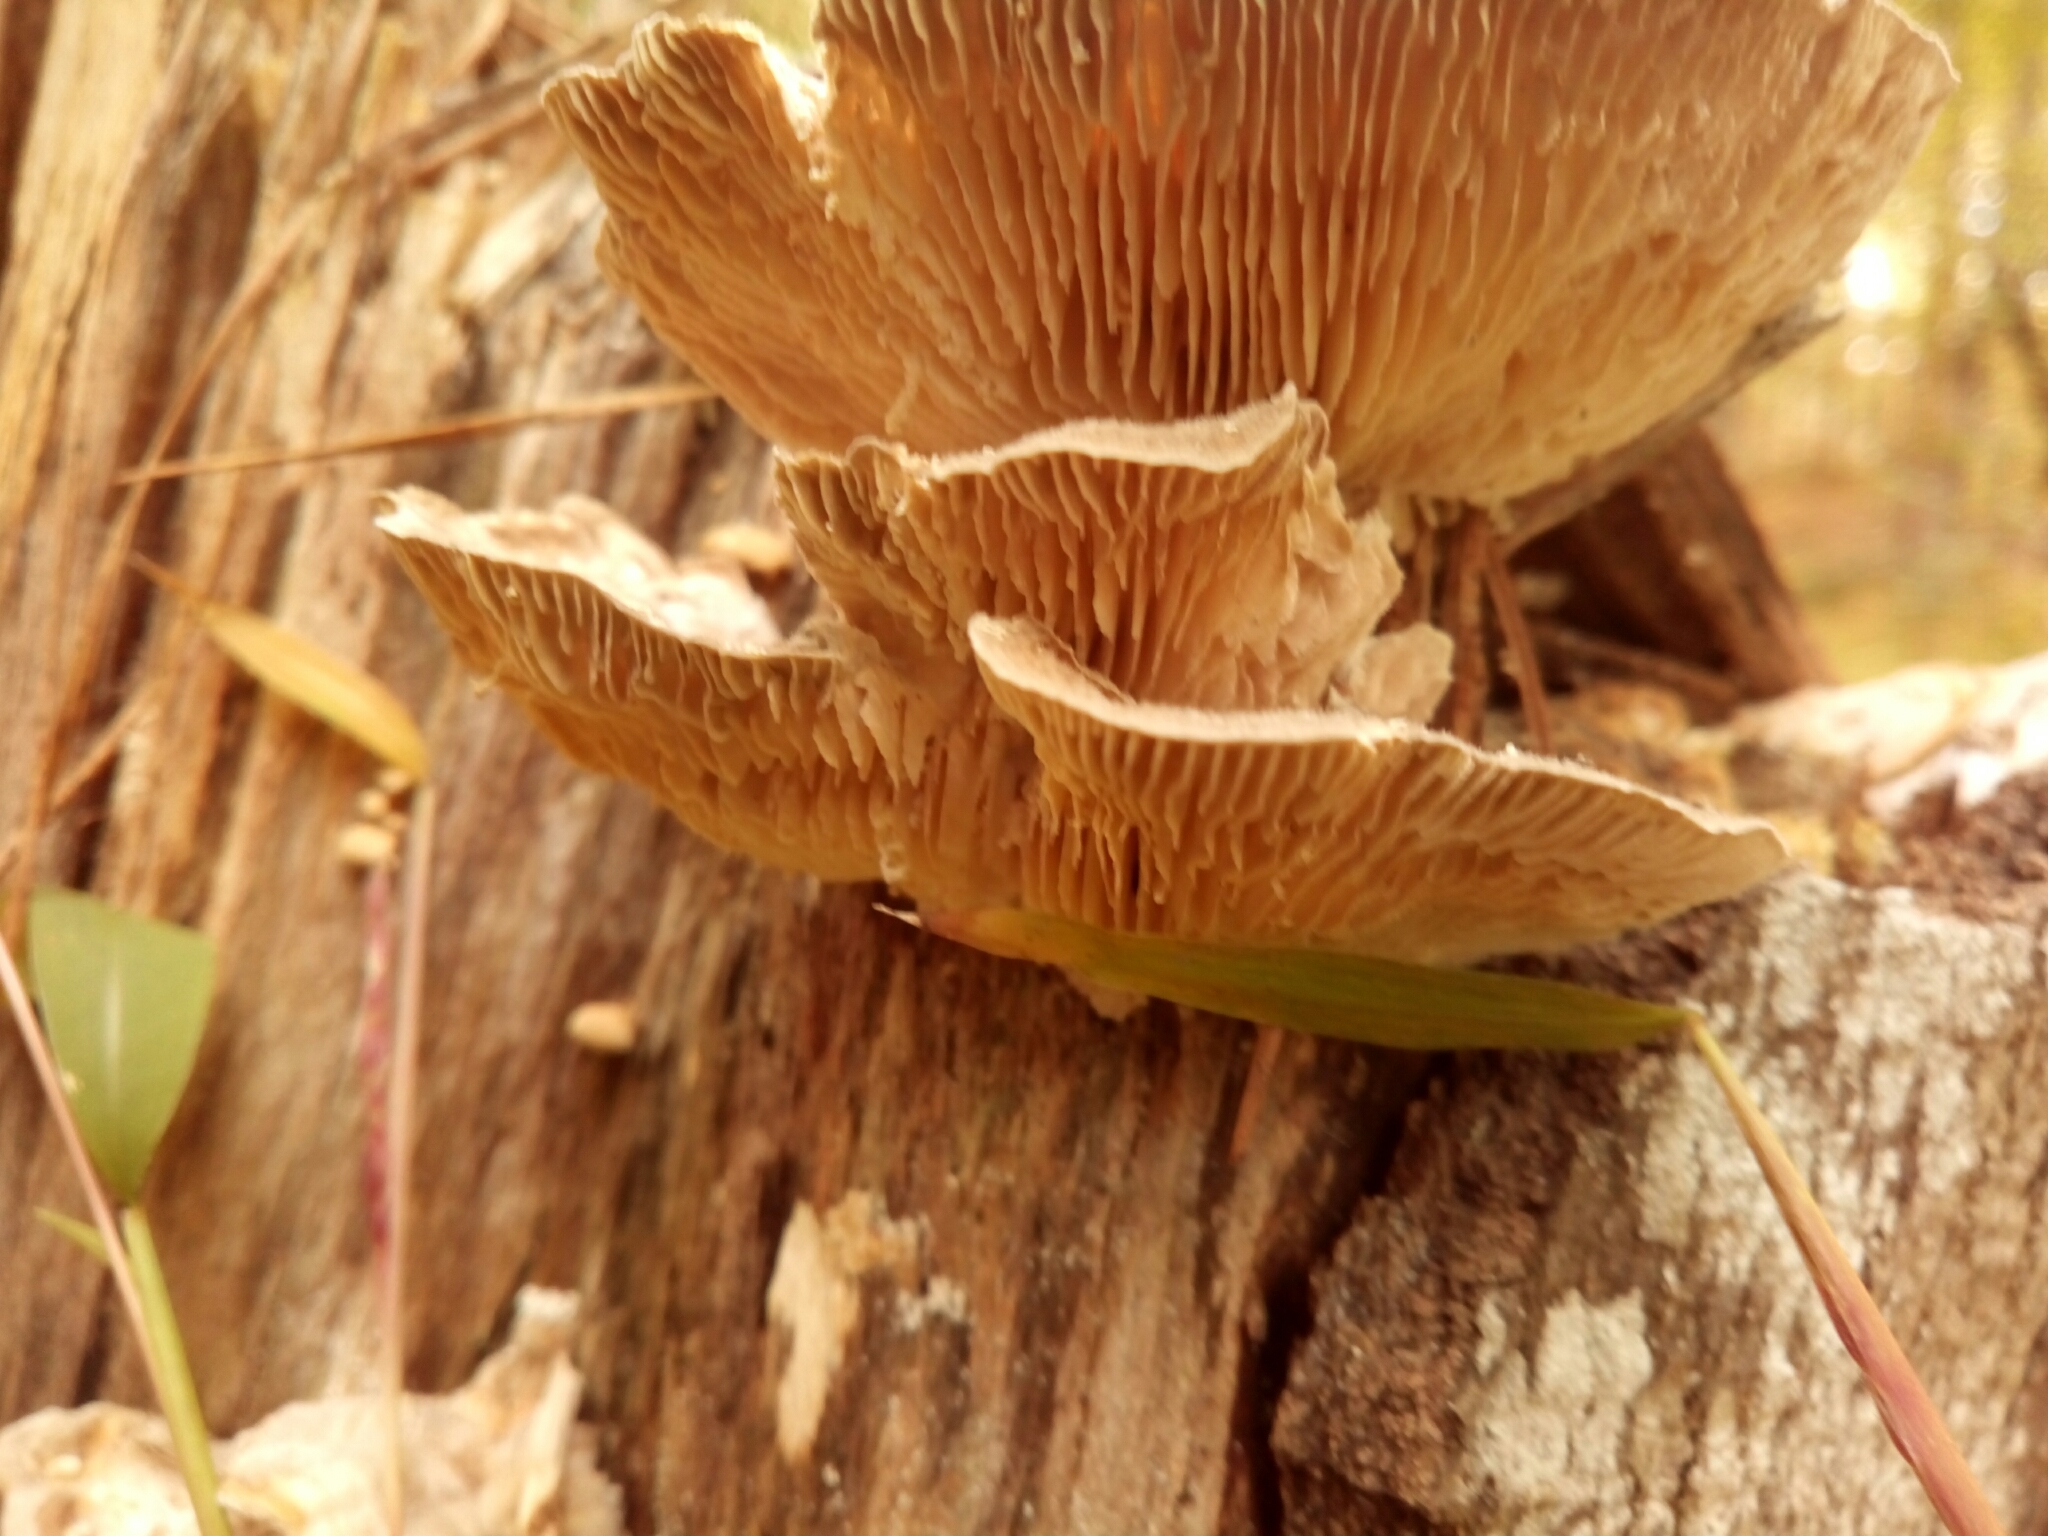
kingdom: Fungi
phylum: Basidiomycota
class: Agaricomycetes
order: Polyporales
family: Polyporaceae
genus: Lenzites
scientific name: Lenzites betulinus
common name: Birch mazegill
